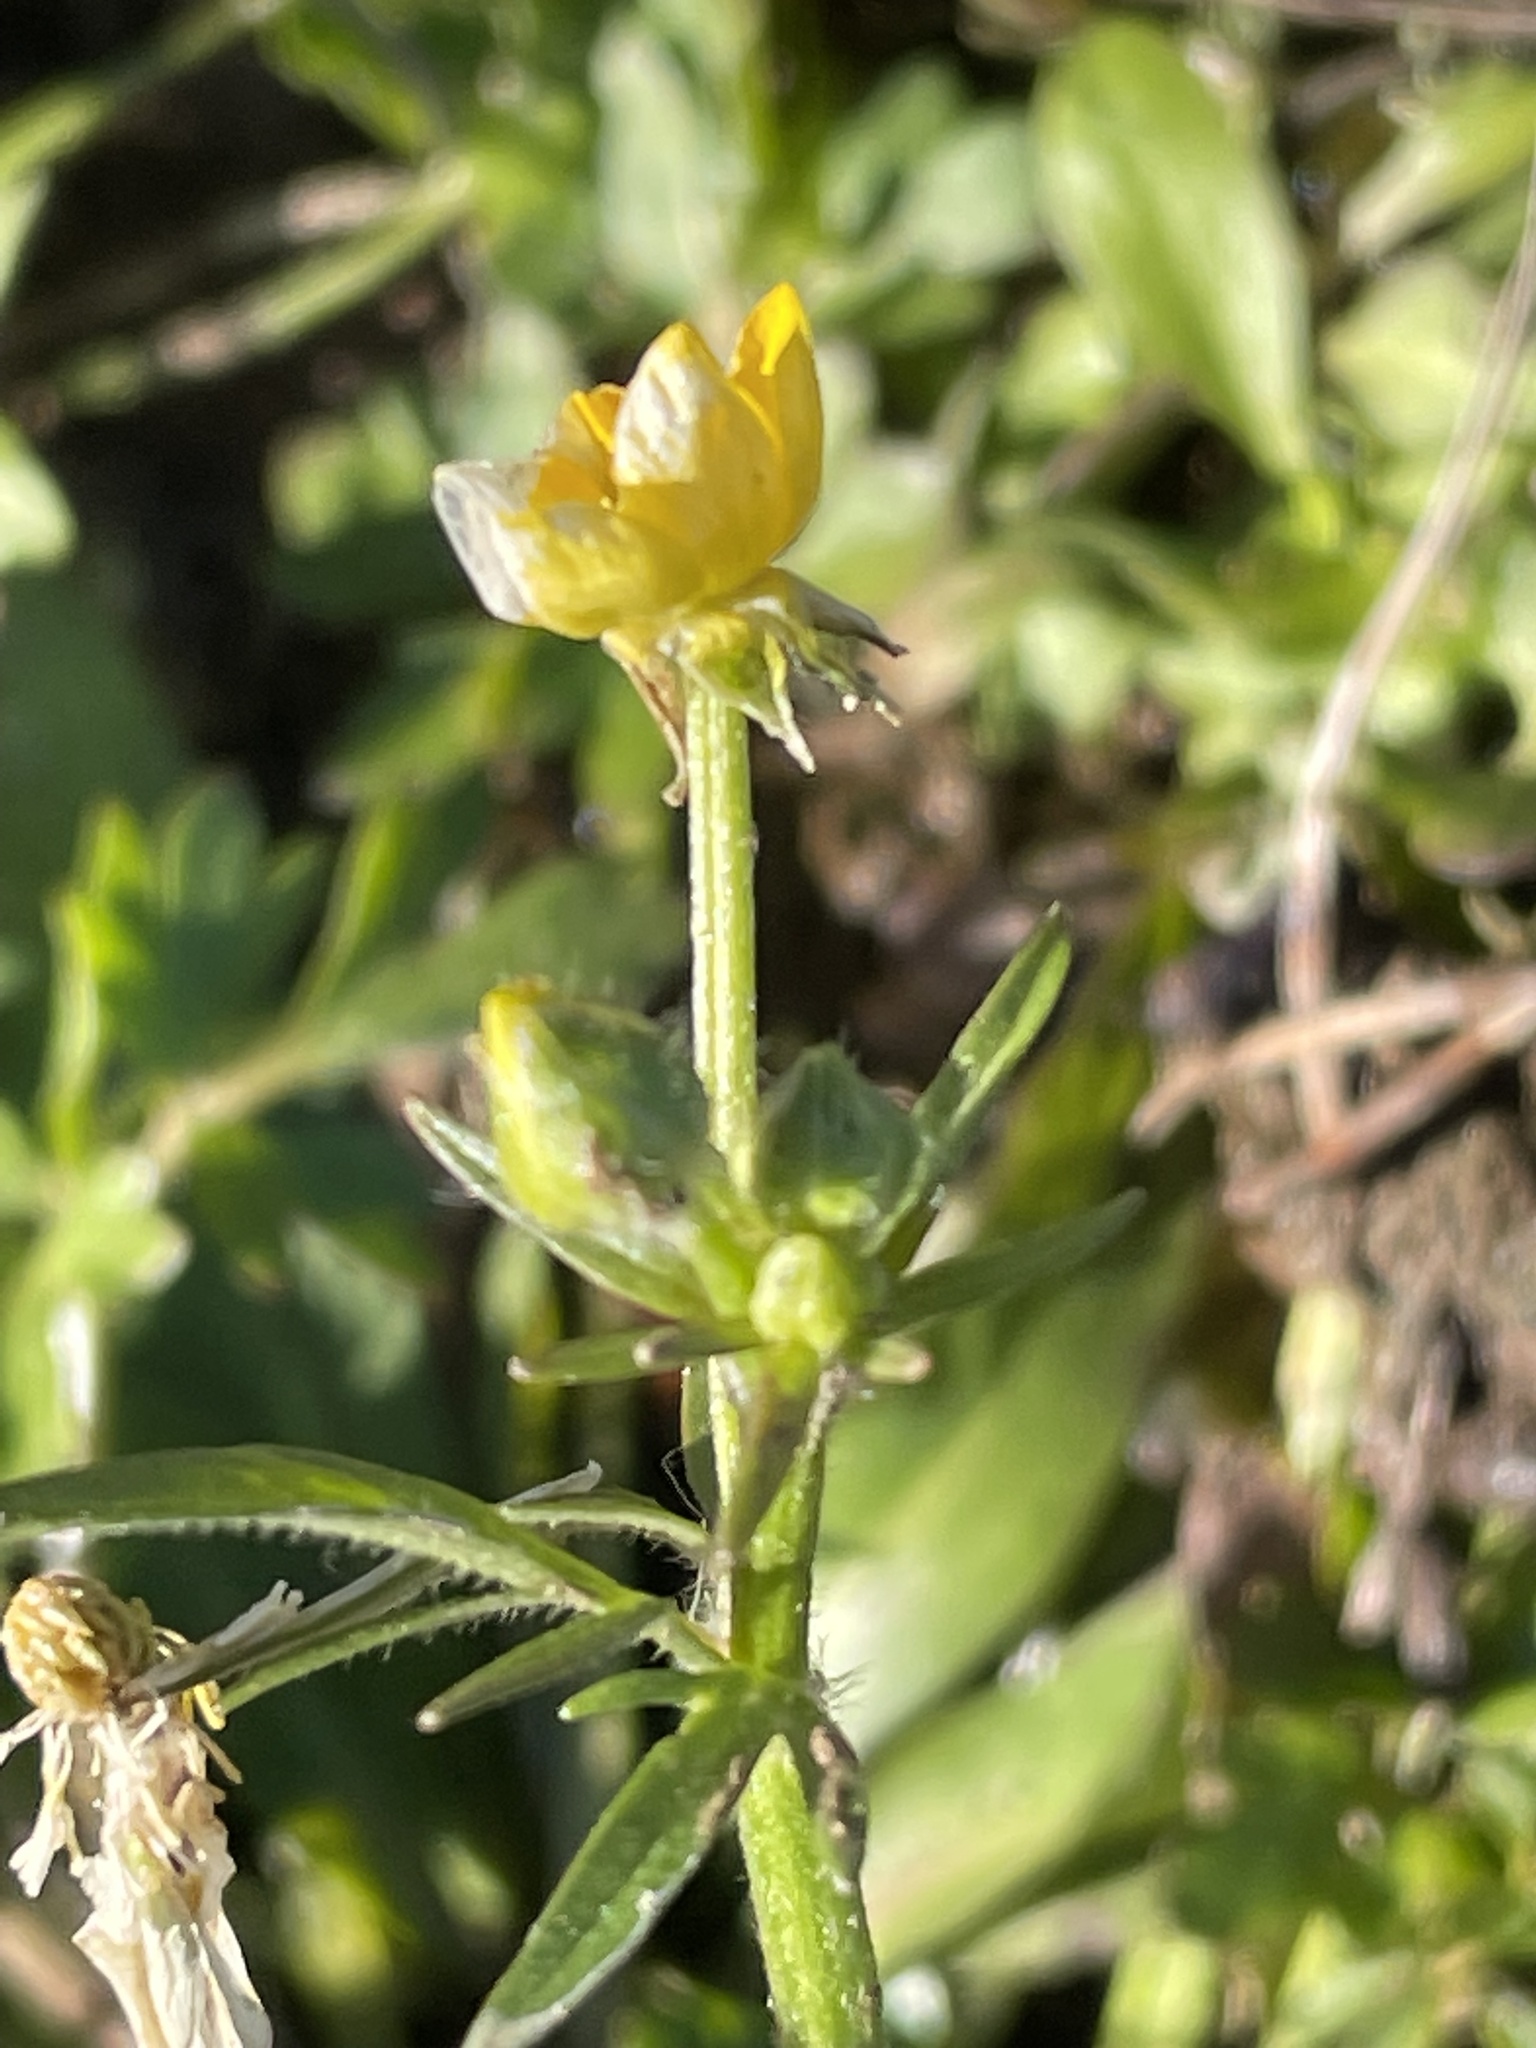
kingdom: Plantae
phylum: Tracheophyta
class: Magnoliopsida
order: Ranunculales
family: Ranunculaceae
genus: Ranunculus
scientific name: Ranunculus sardous
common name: Hairy buttercup
